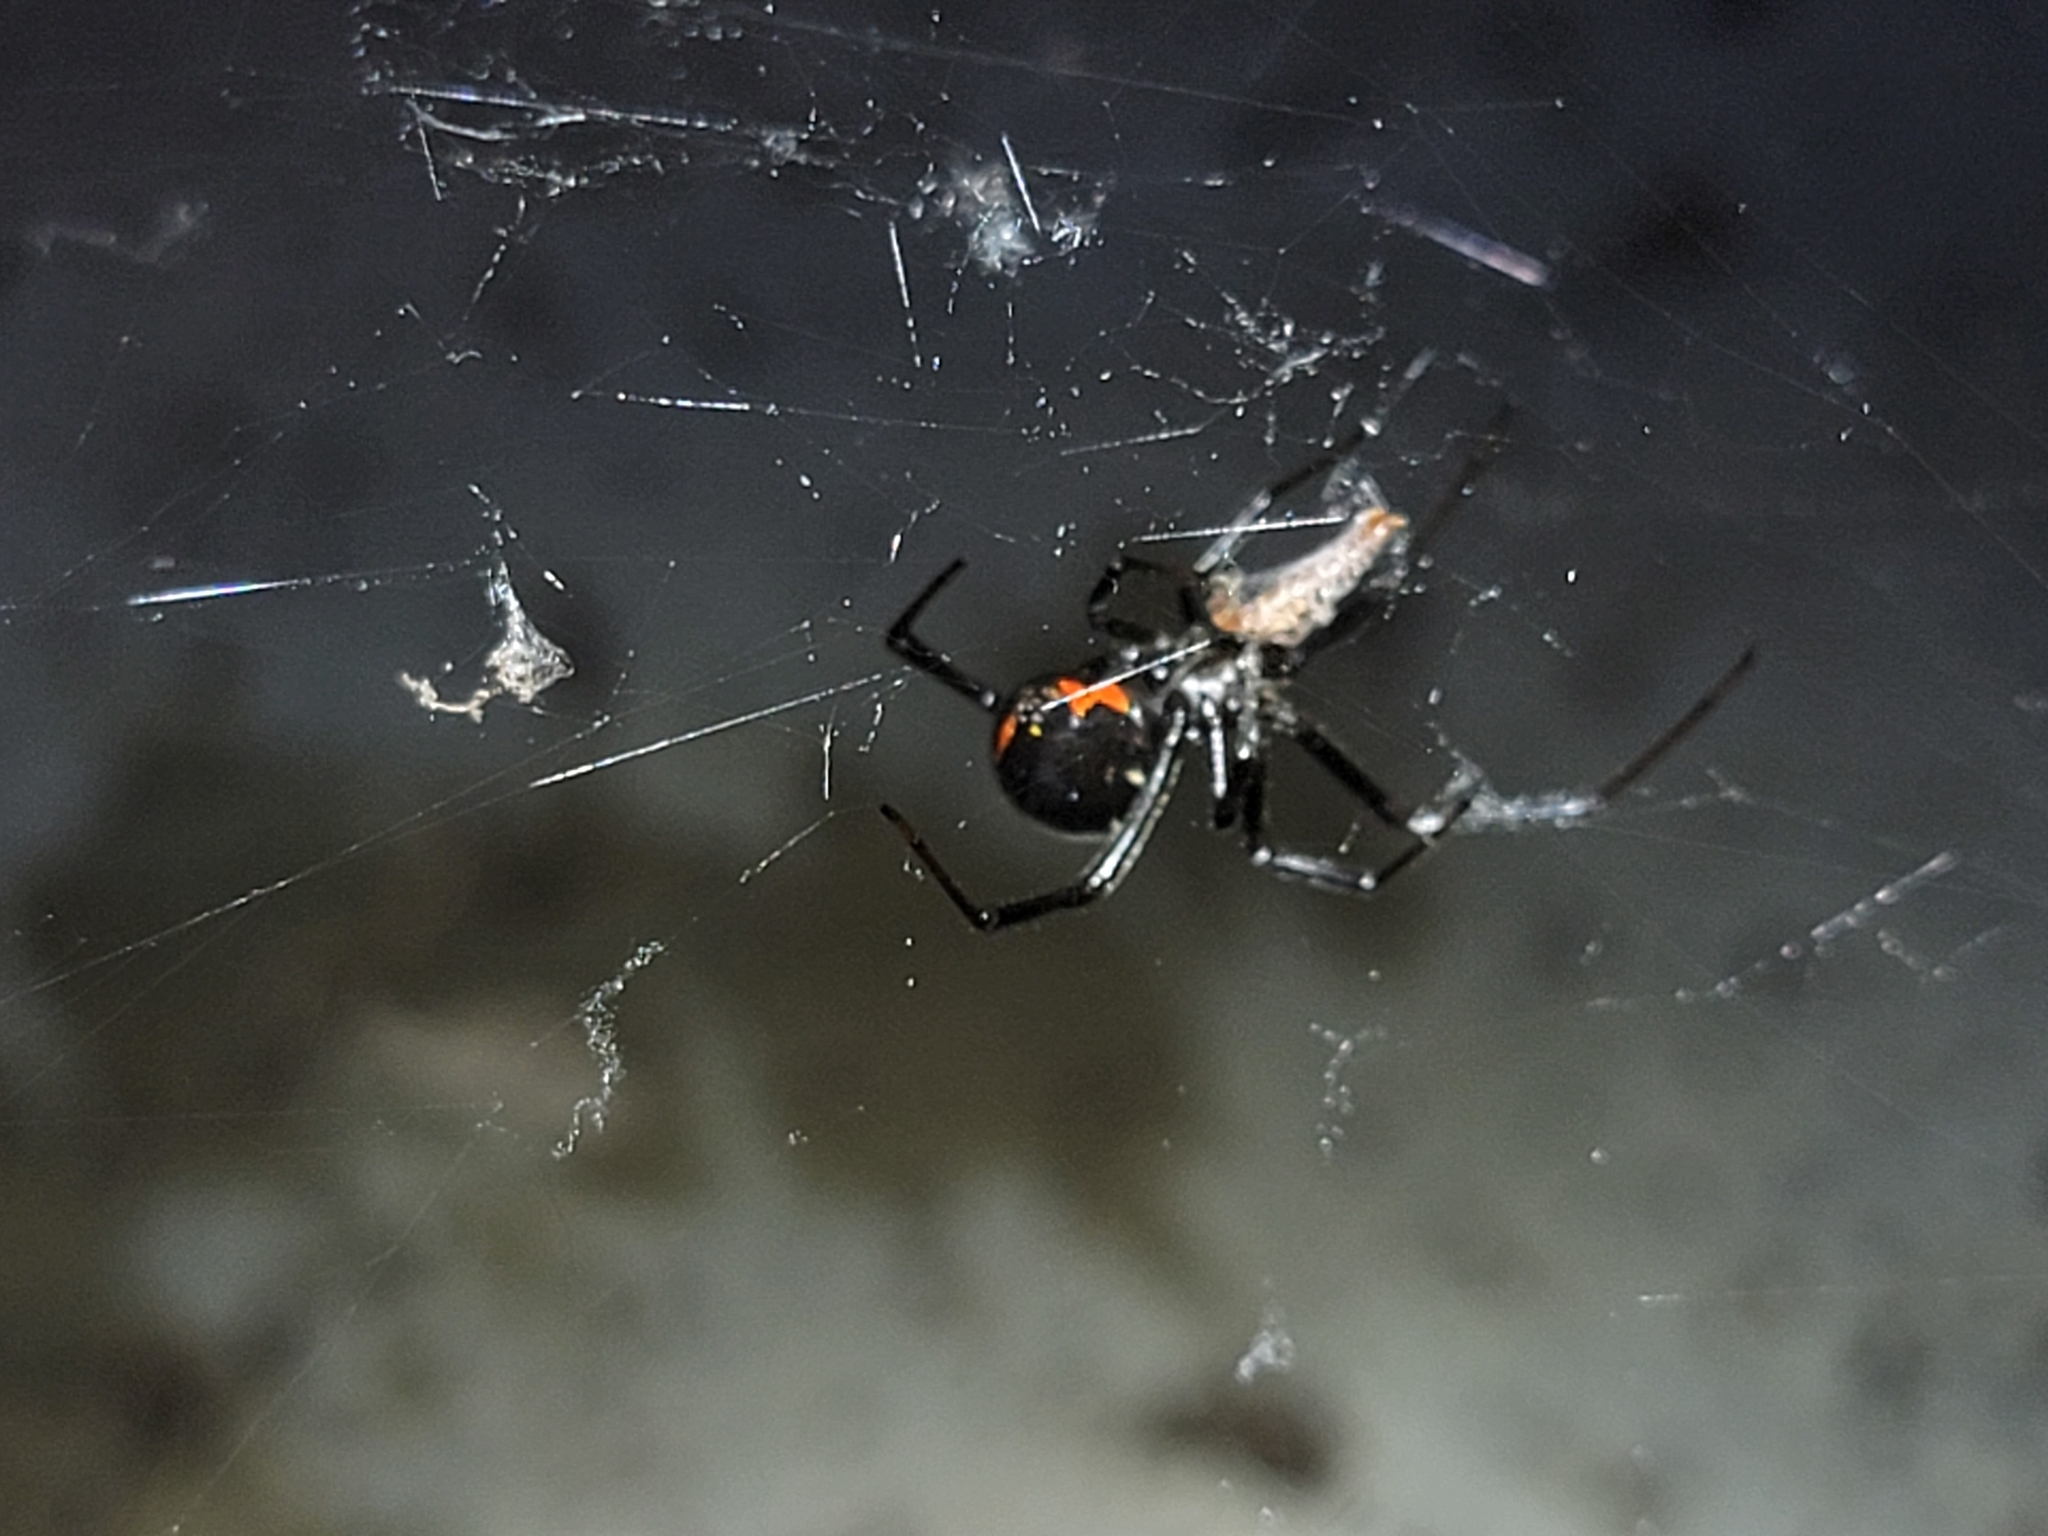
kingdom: Animalia
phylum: Arthropoda
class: Arachnida
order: Araneae
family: Theridiidae
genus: Latrodectus
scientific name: Latrodectus hesperus
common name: Western black widow
